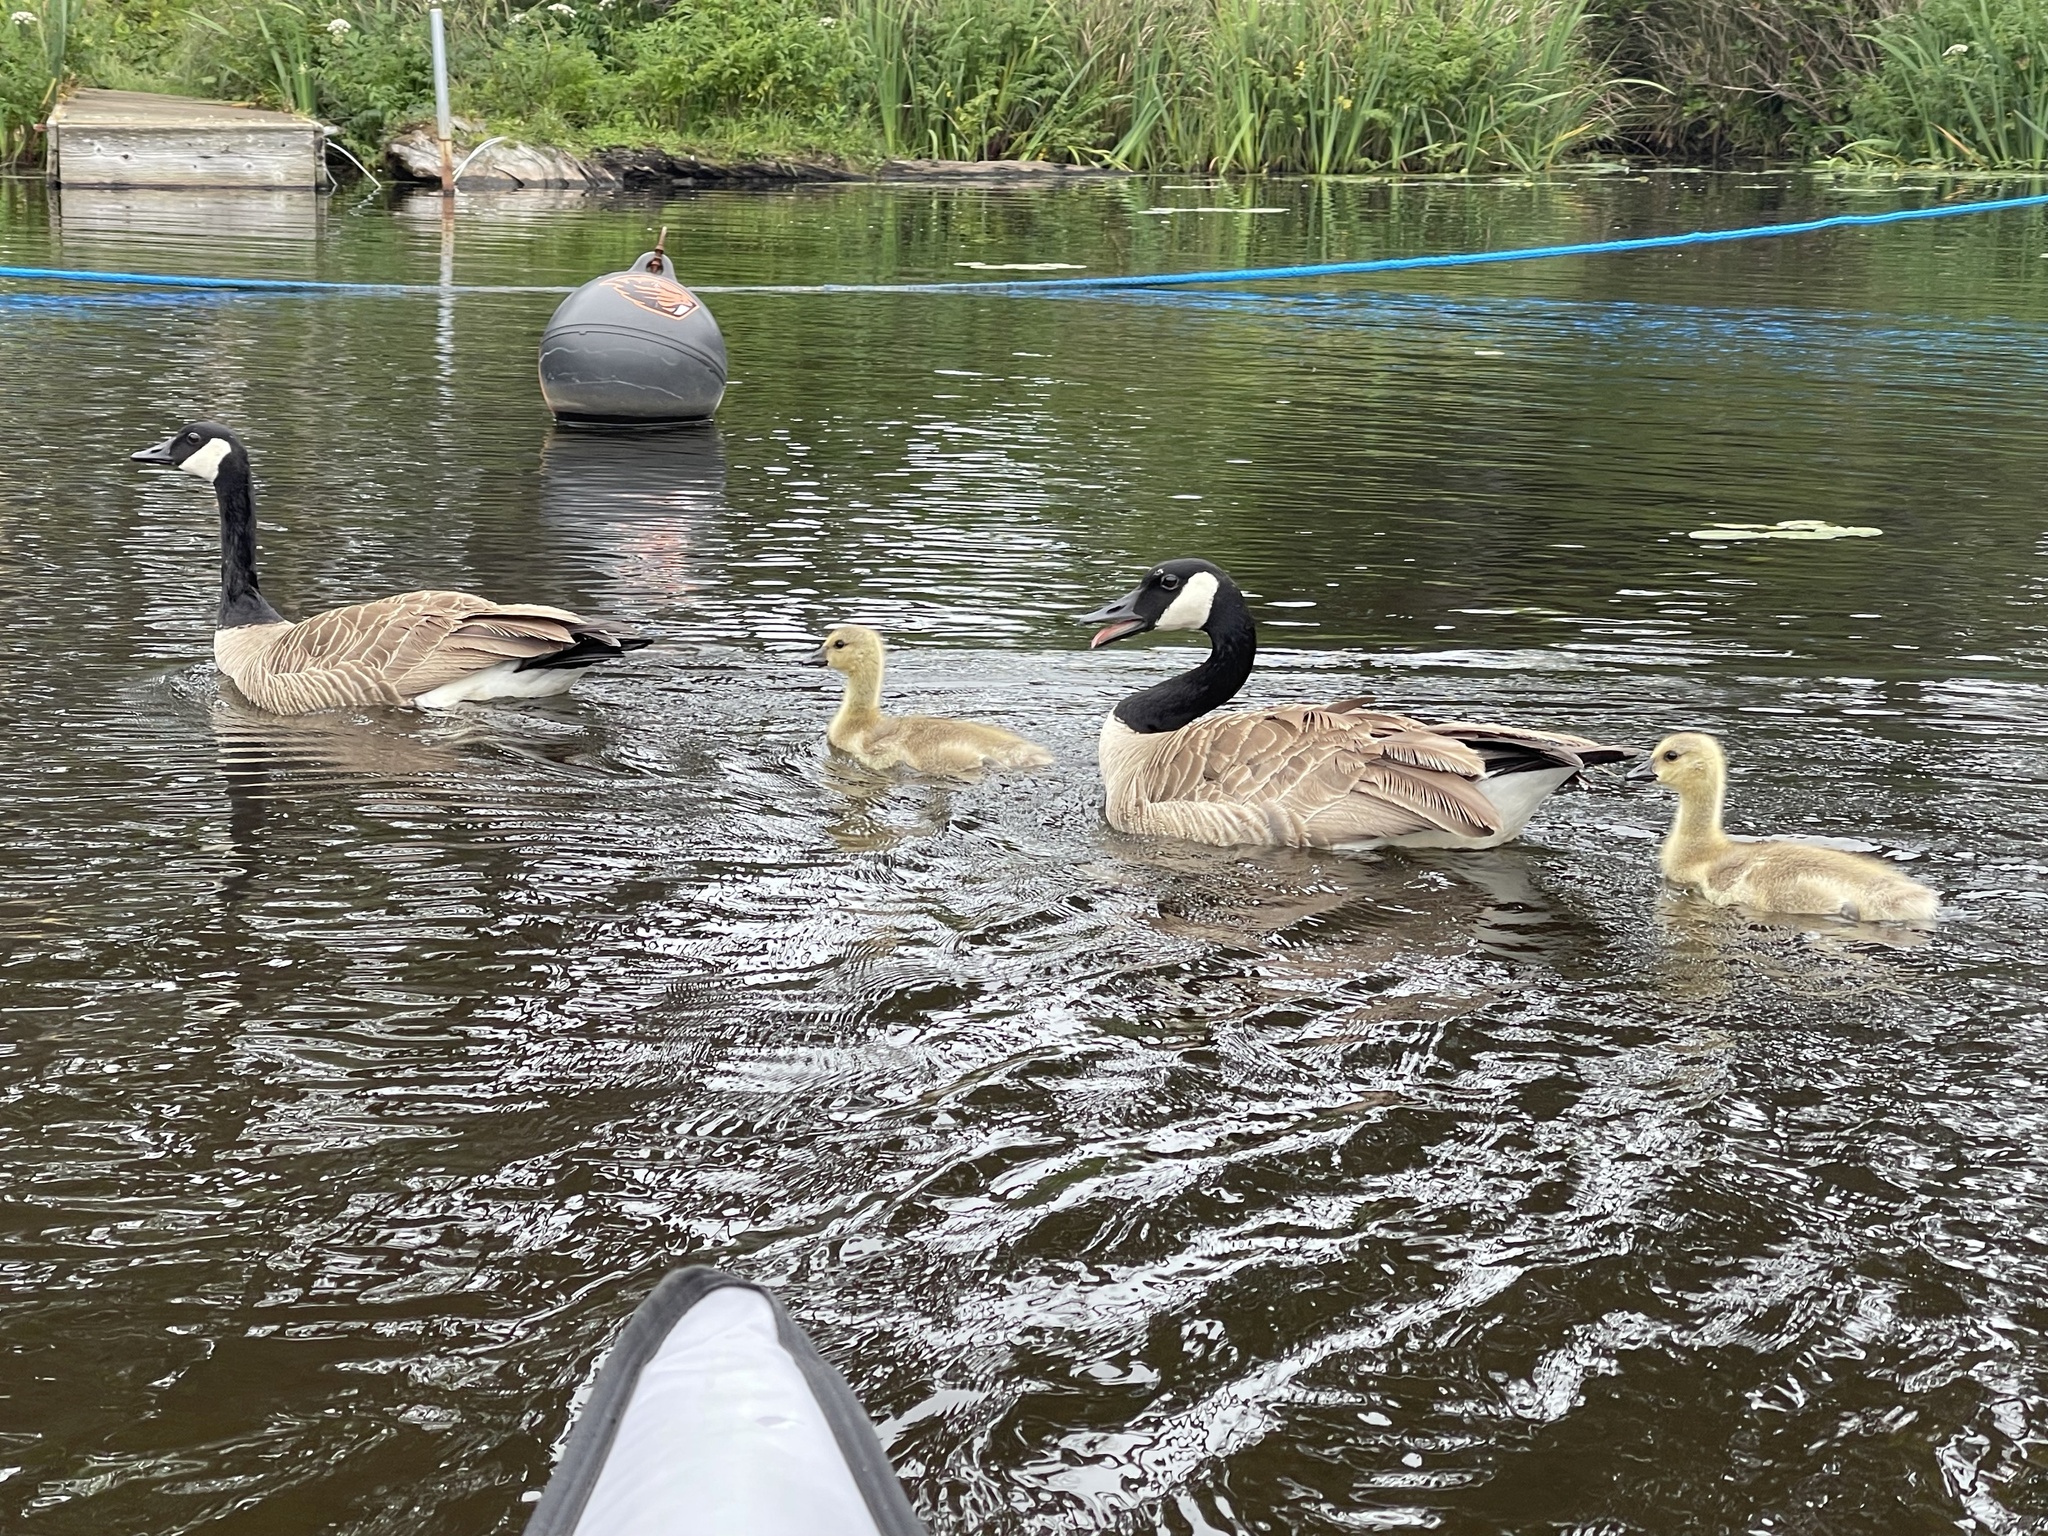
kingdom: Animalia
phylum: Chordata
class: Aves
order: Anseriformes
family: Anatidae
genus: Branta
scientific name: Branta canadensis
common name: Canada goose
